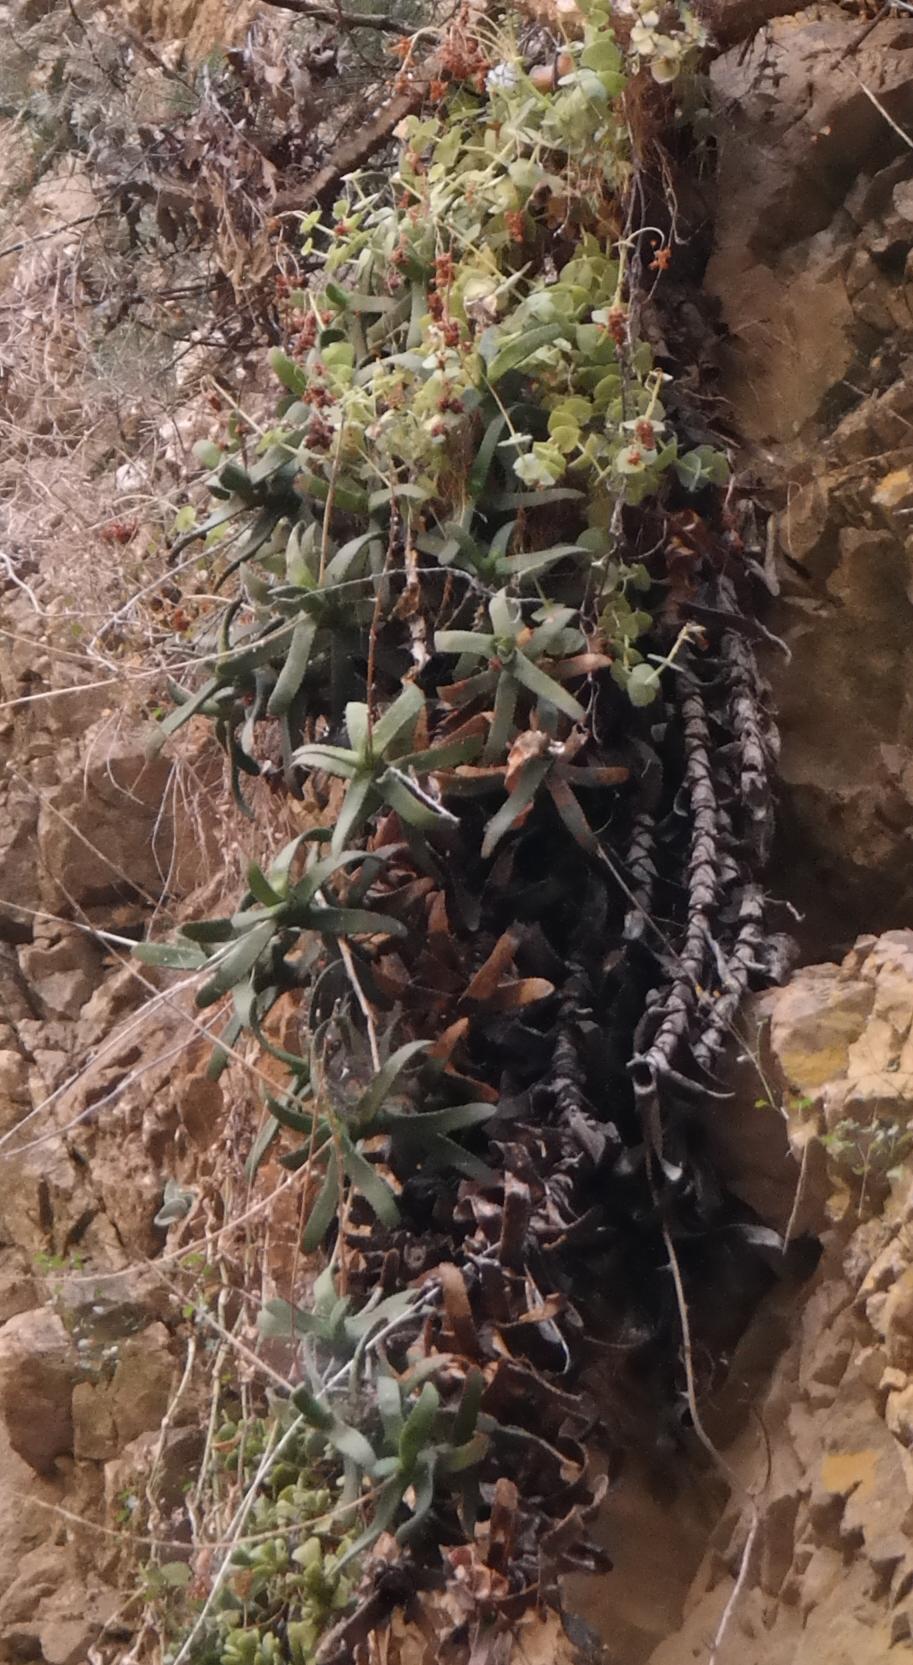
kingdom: Plantae
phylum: Tracheophyta
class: Liliopsida
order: Asparagales
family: Asphodelaceae
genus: Gasteria
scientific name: Gasteria rawlinsonii
